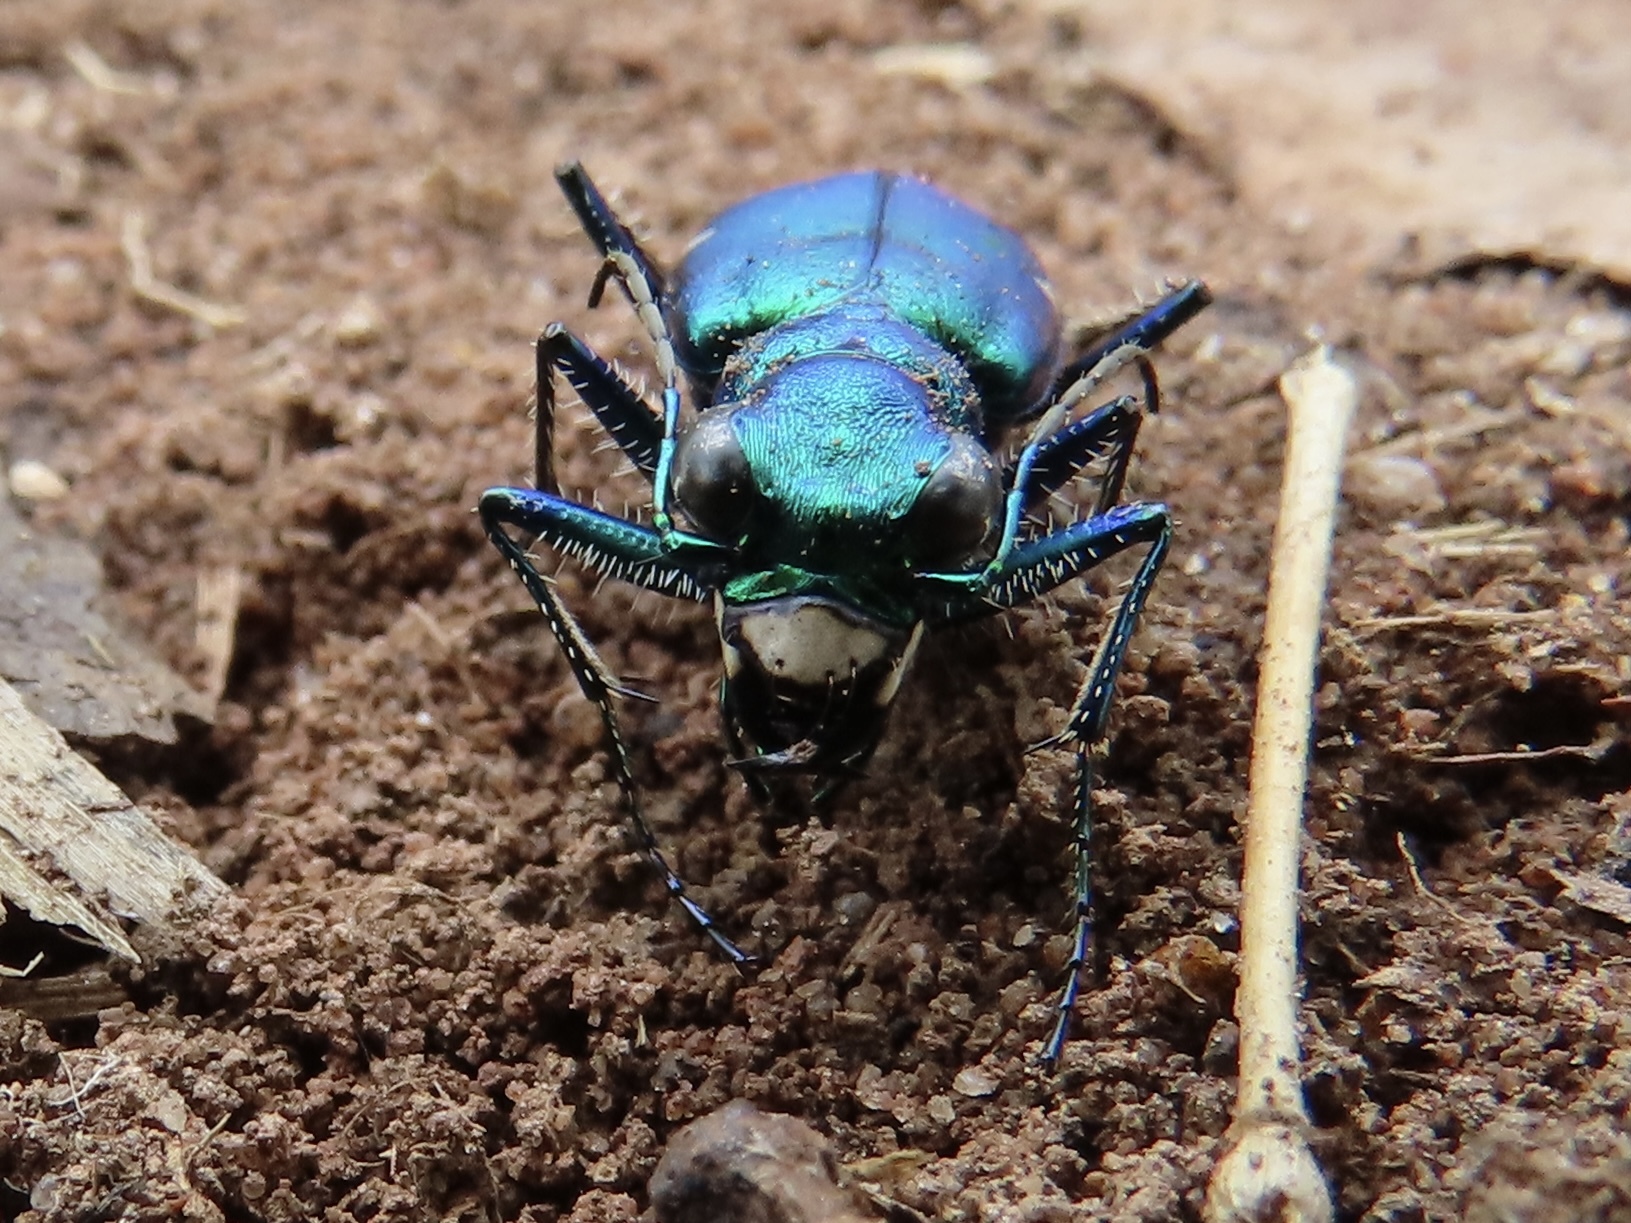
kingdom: Animalia
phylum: Arthropoda
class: Insecta
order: Coleoptera
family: Carabidae
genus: Cicindela
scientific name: Cicindela sexguttata
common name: Six-spotted tiger beetle
